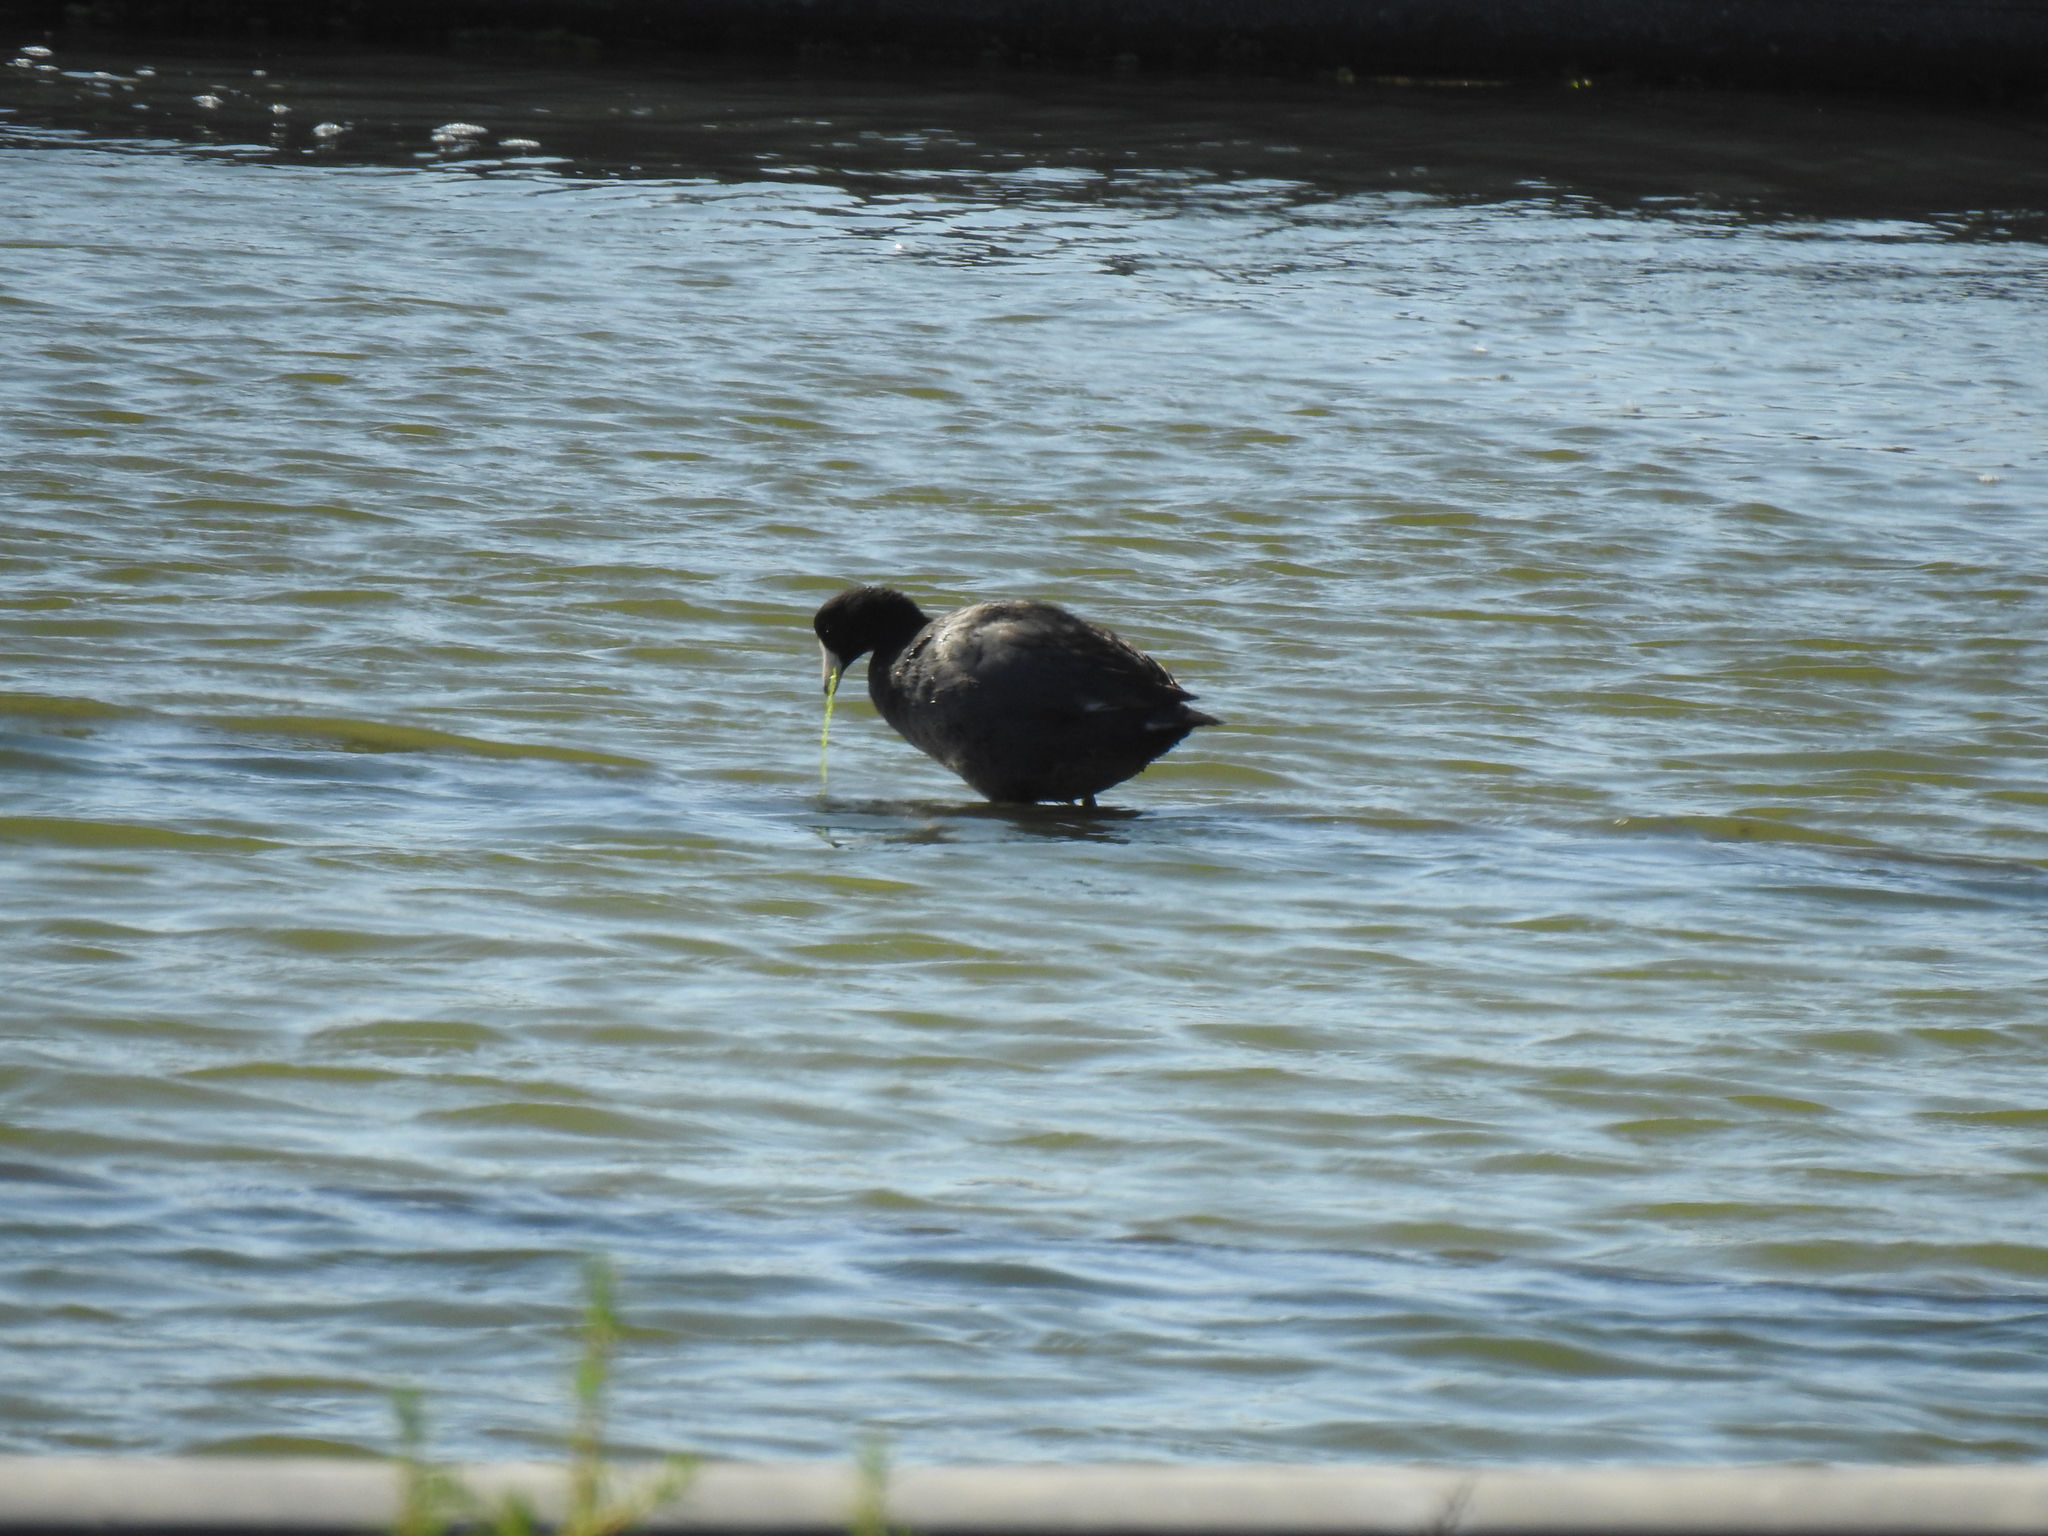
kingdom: Animalia
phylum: Chordata
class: Aves
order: Gruiformes
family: Rallidae
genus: Fulica
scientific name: Fulica americana
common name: American coot
